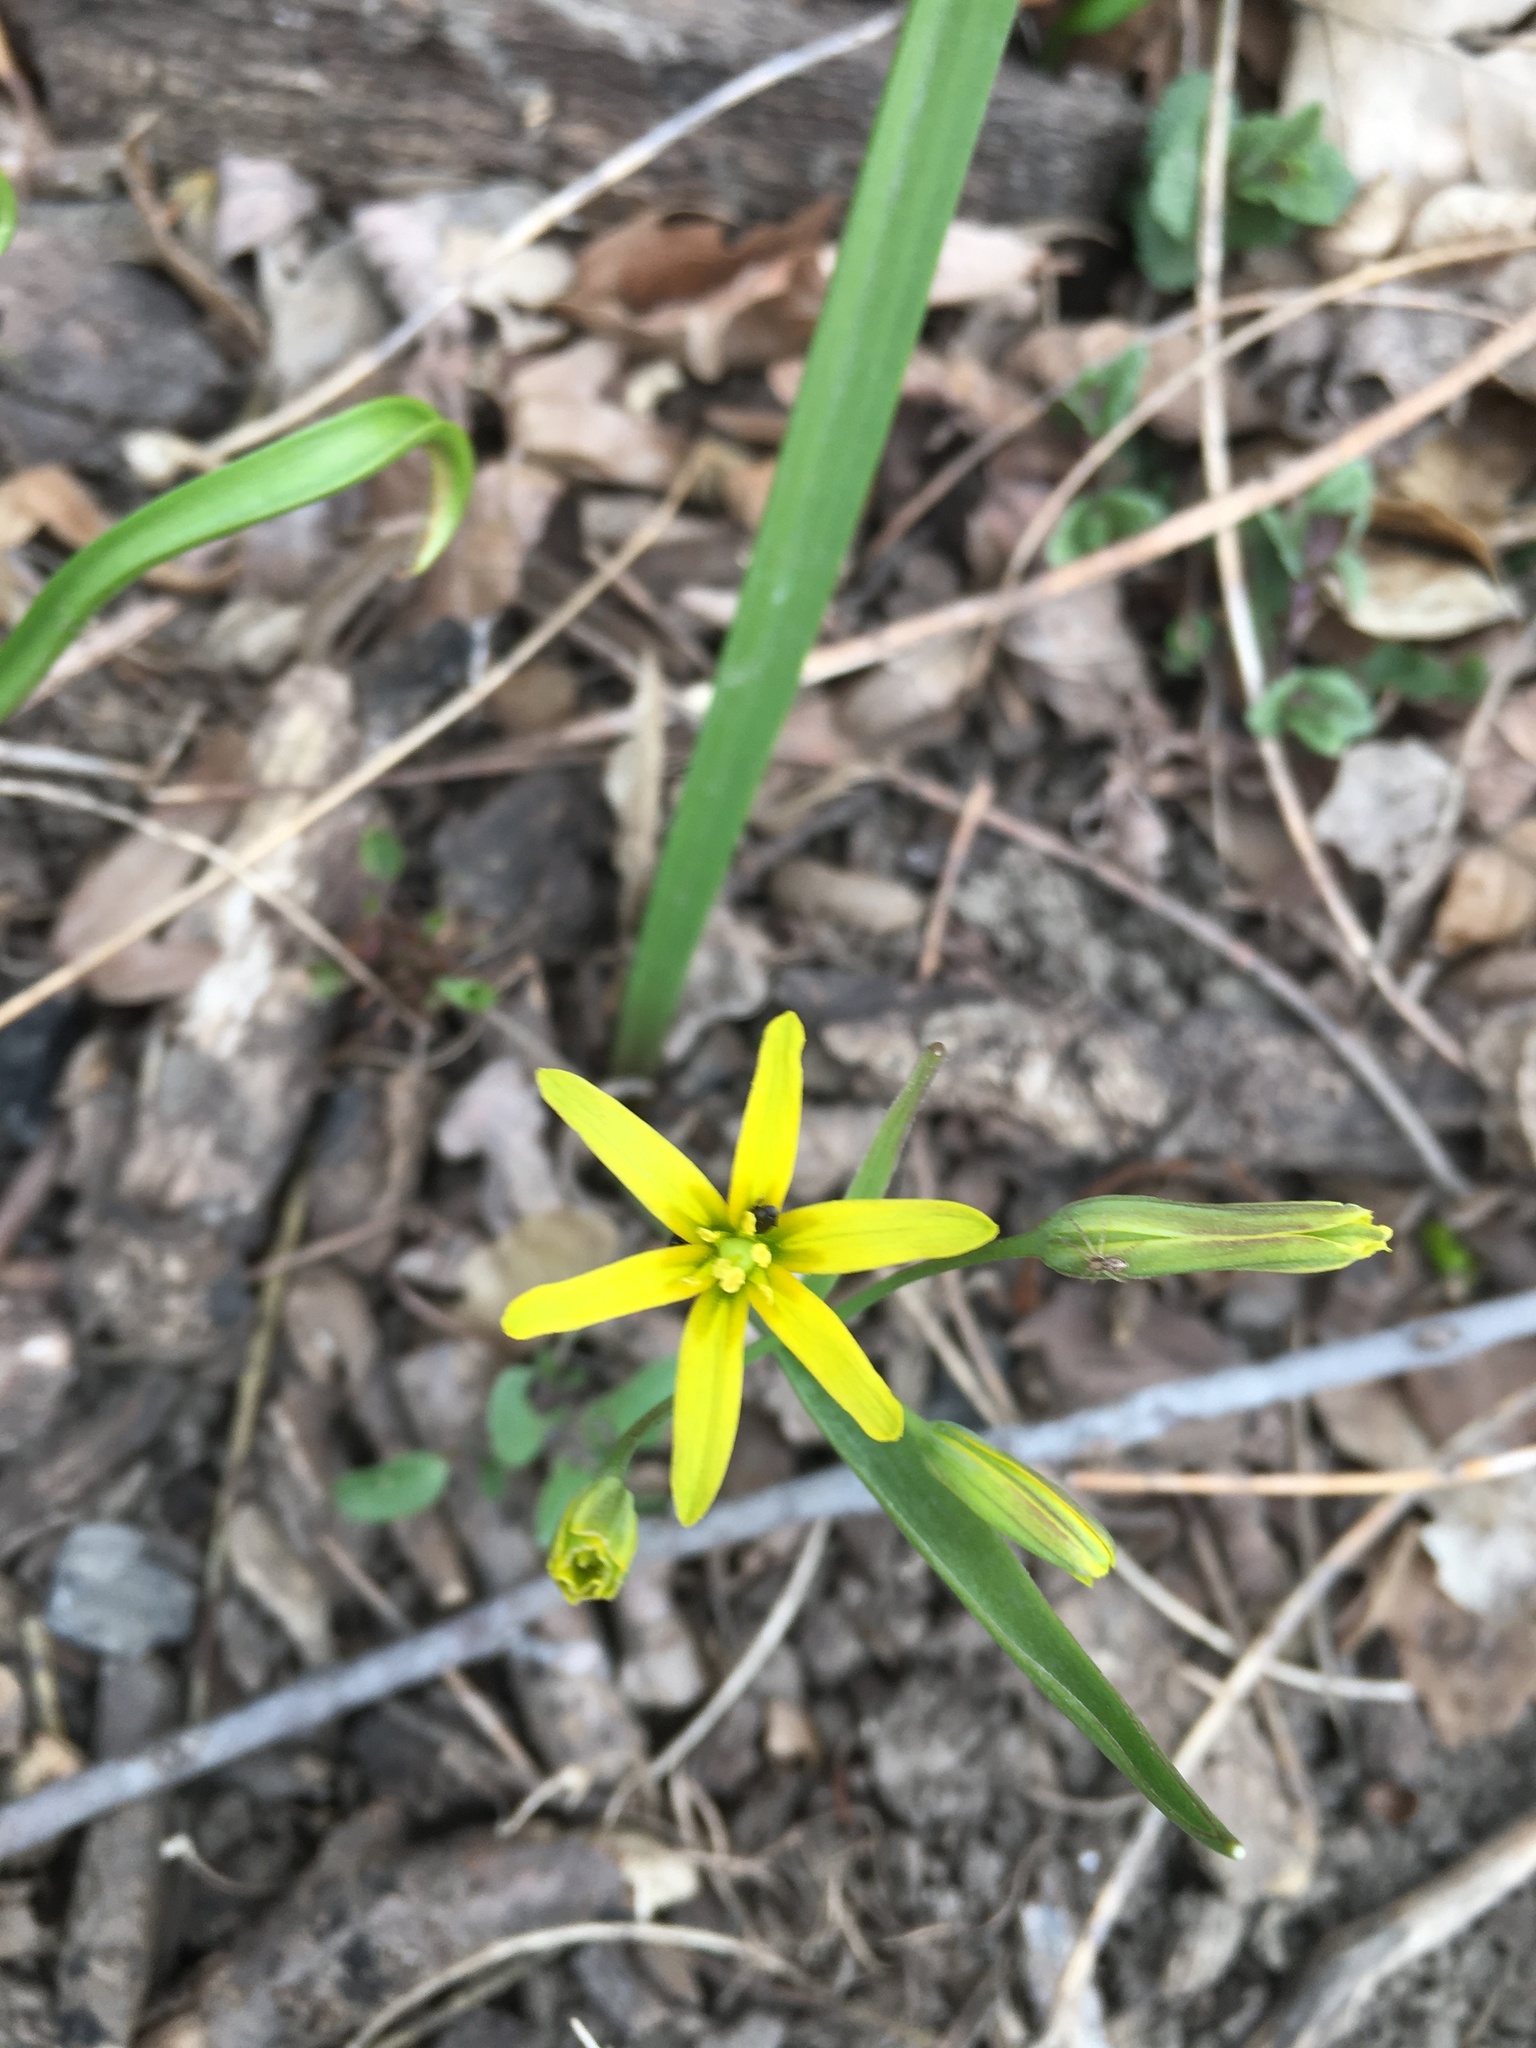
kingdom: Plantae
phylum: Tracheophyta
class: Liliopsida
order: Liliales
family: Liliaceae
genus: Gagea
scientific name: Gagea lutea
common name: Yellow star-of-bethlehem
